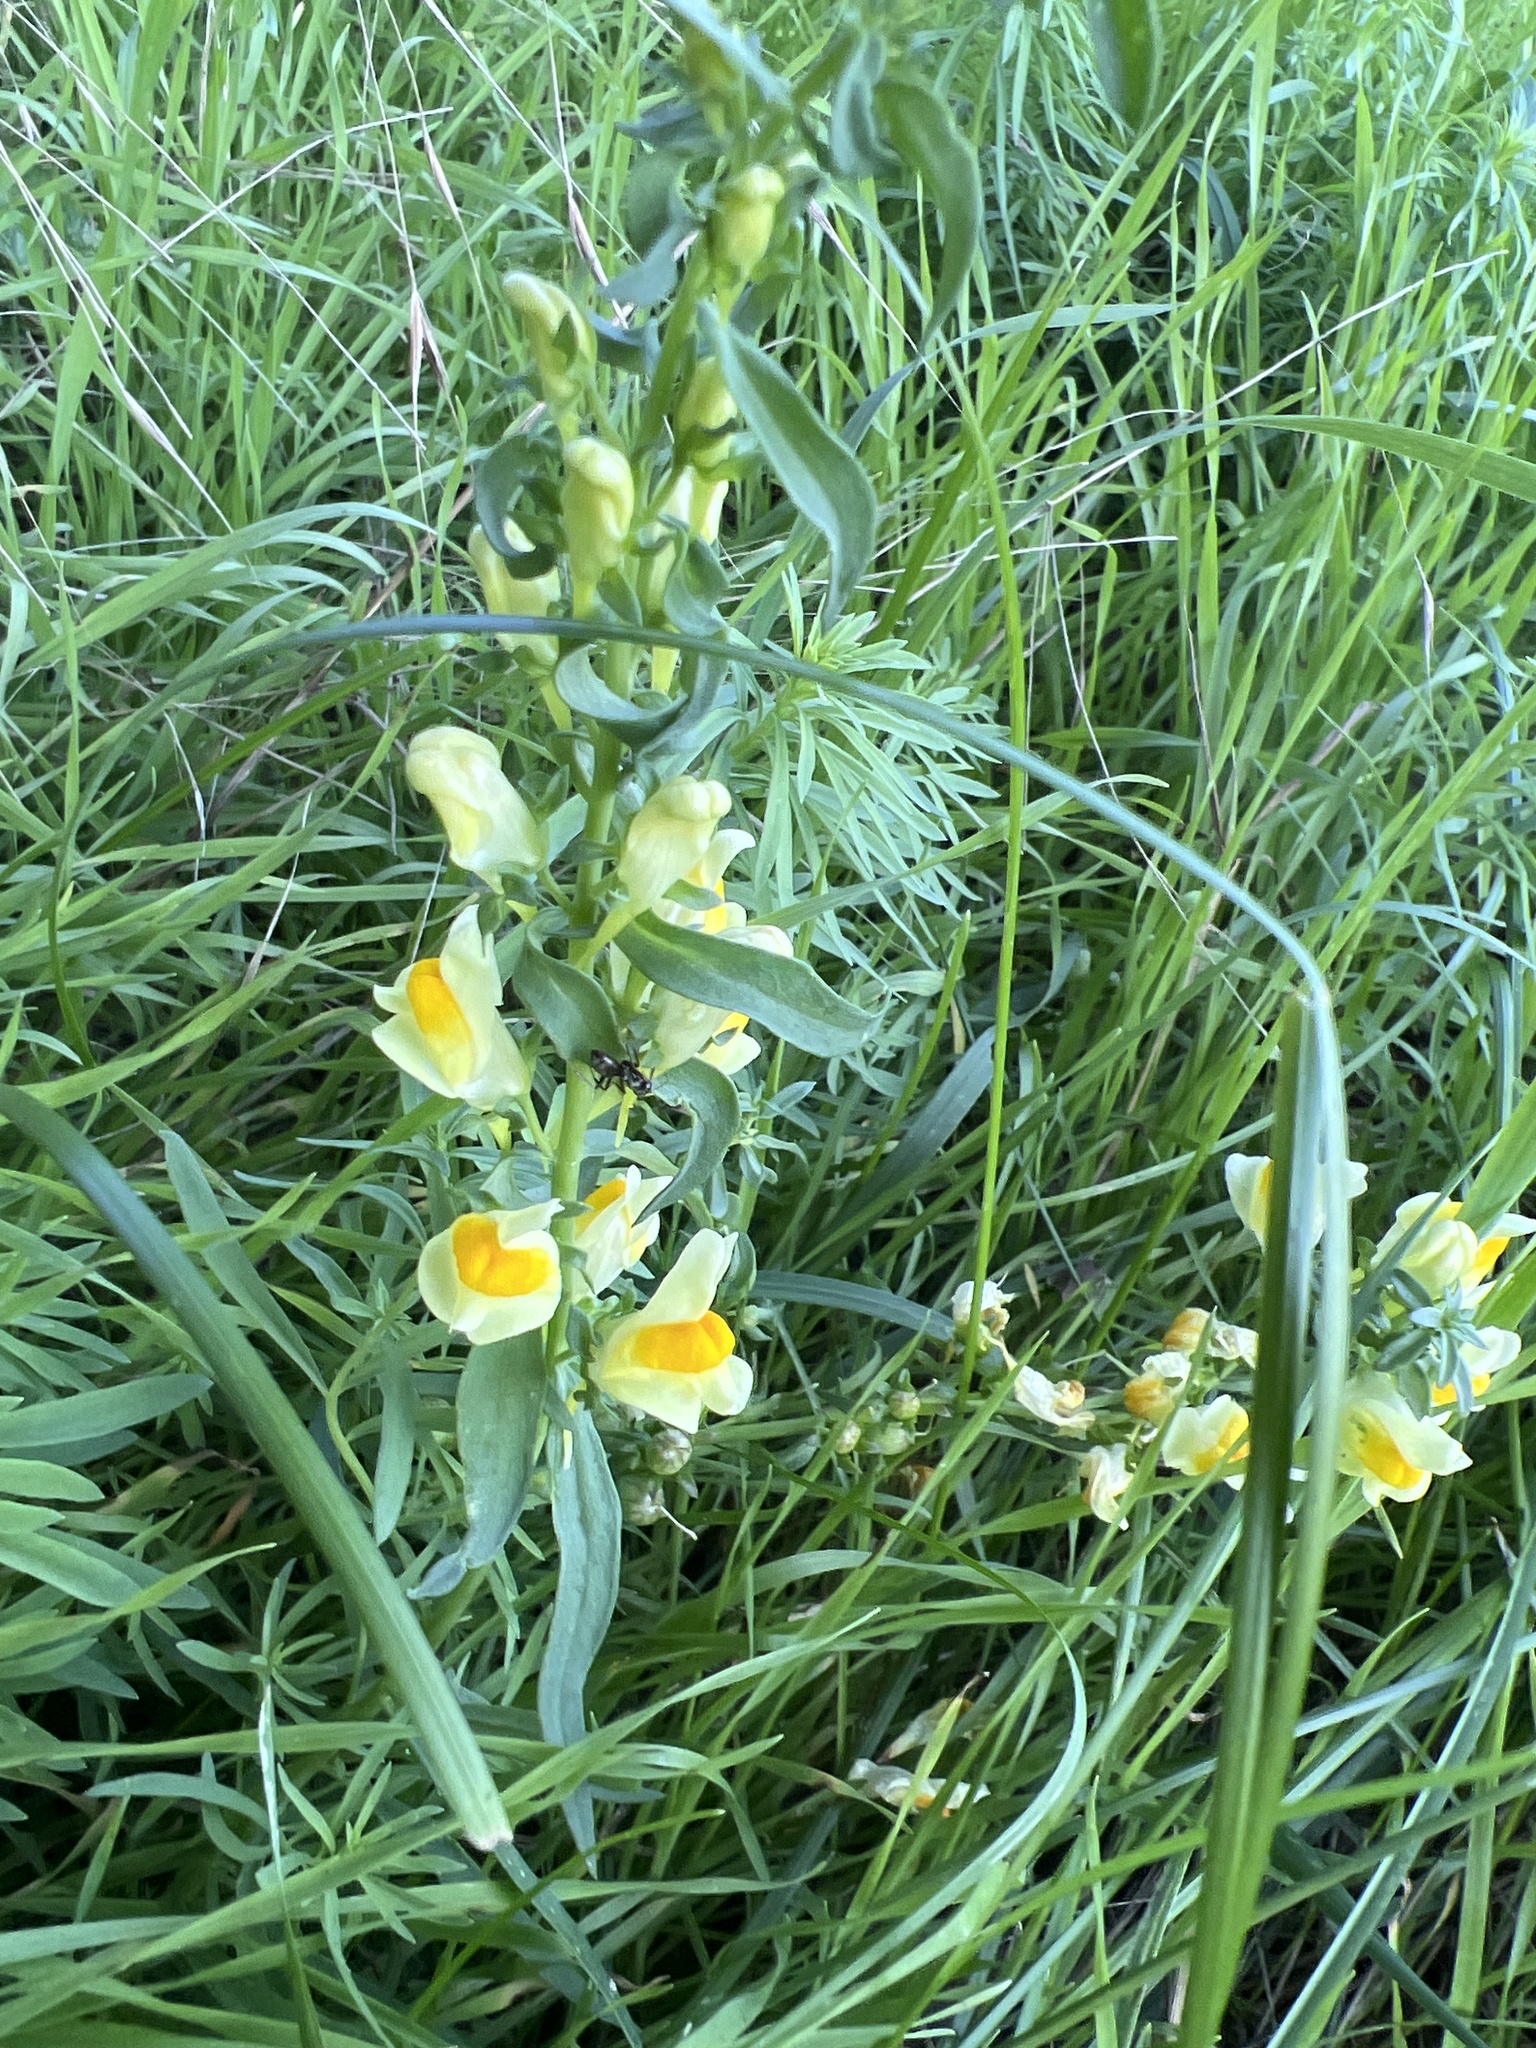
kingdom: Plantae
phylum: Tracheophyta
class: Magnoliopsida
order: Lamiales
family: Plantaginaceae
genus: Linaria
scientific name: Linaria vulgaris
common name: Butter and eggs
